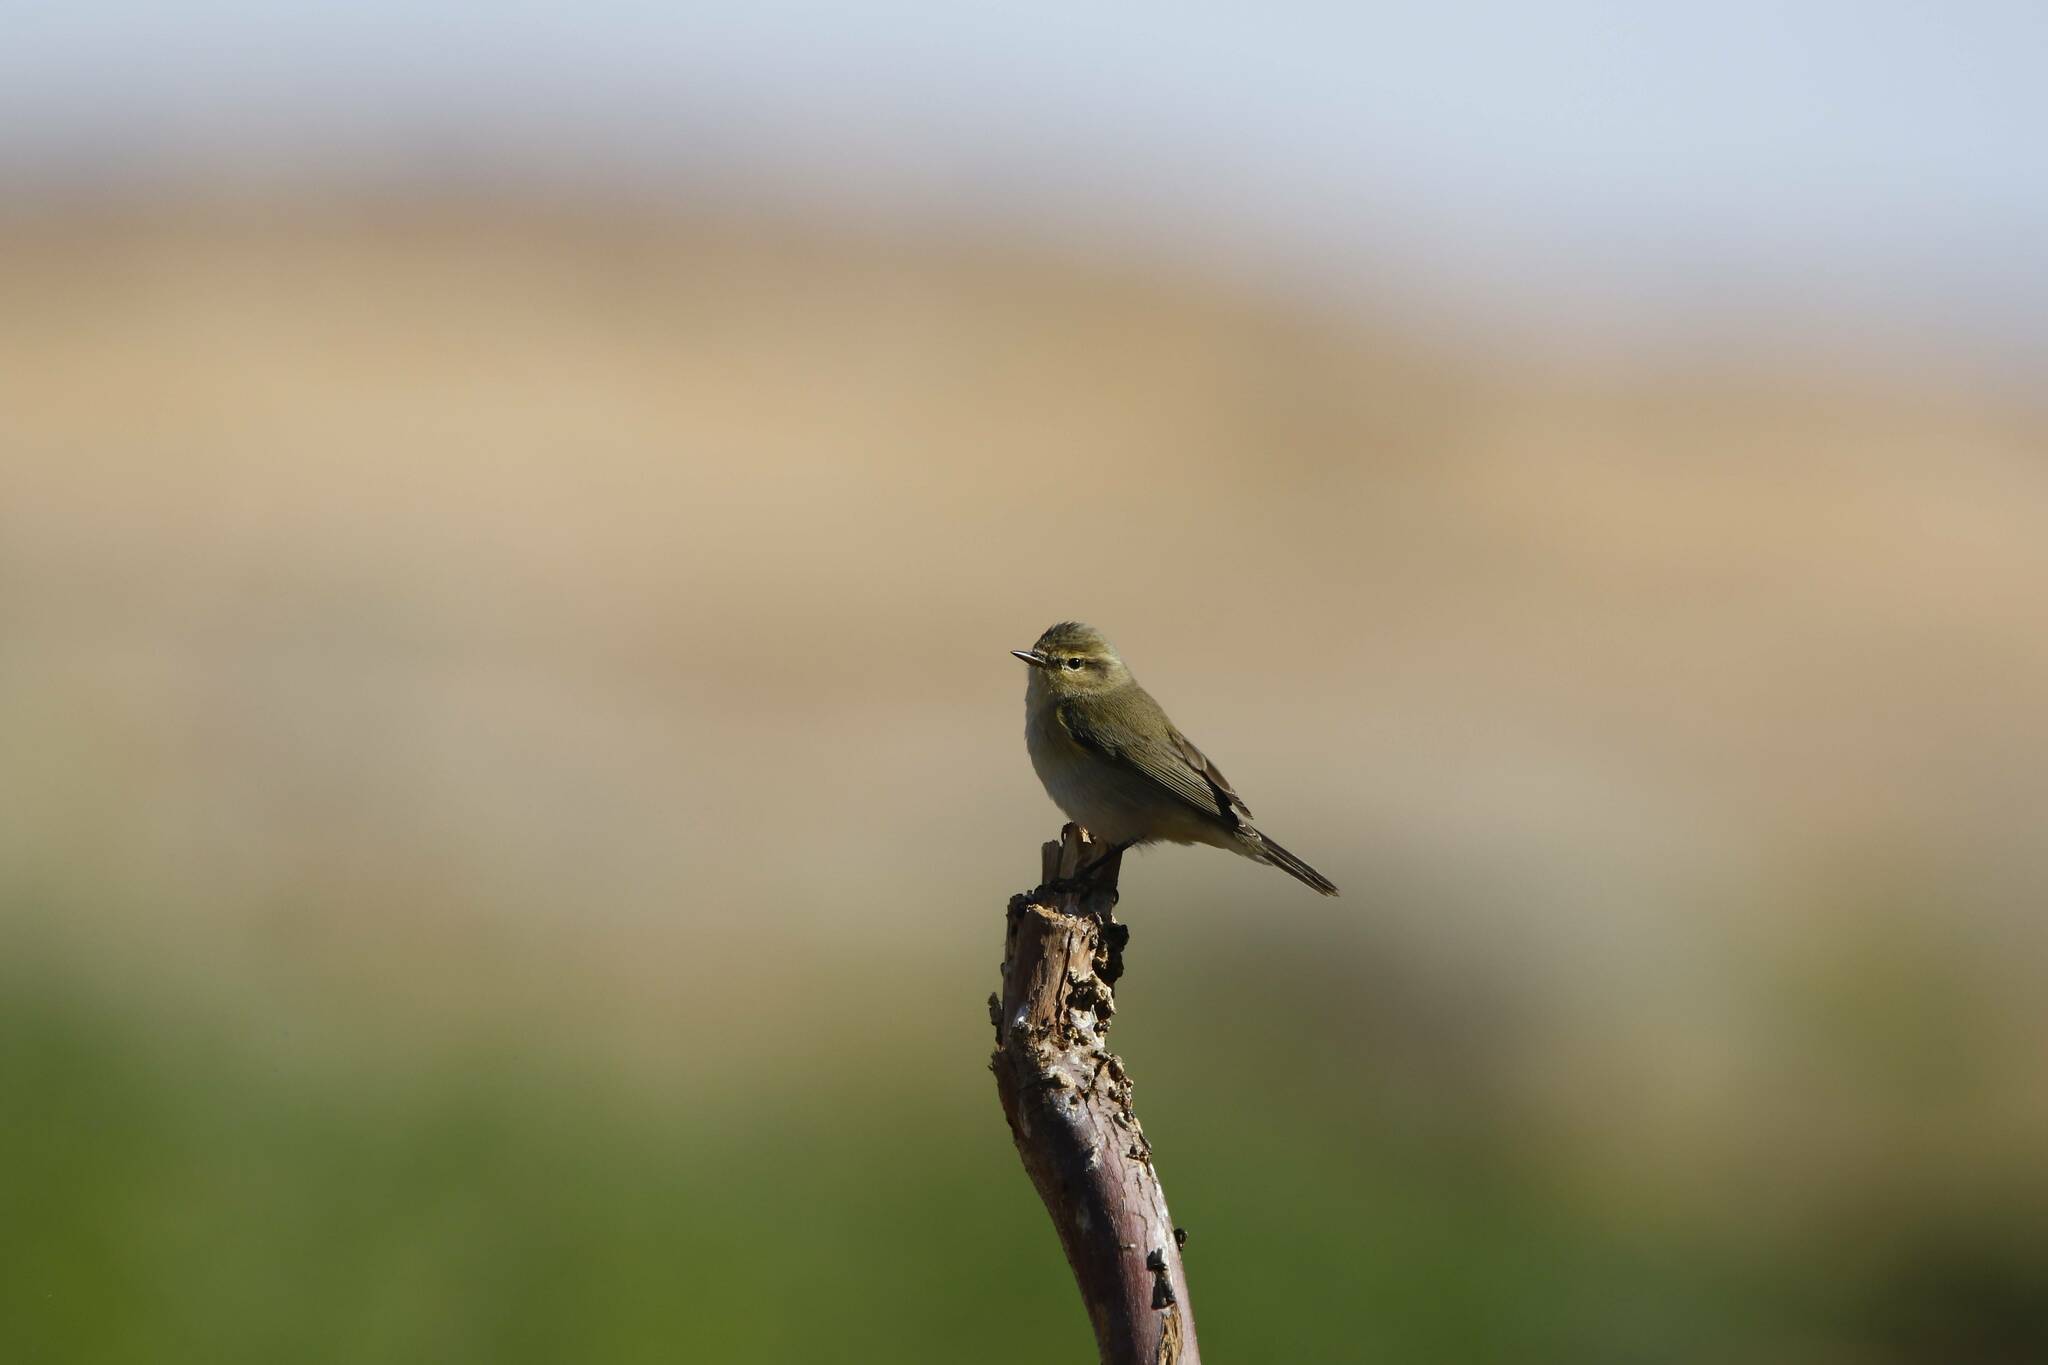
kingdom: Animalia
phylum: Chordata
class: Aves
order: Passeriformes
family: Phylloscopidae
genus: Phylloscopus
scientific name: Phylloscopus collybita
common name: Common chiffchaff
